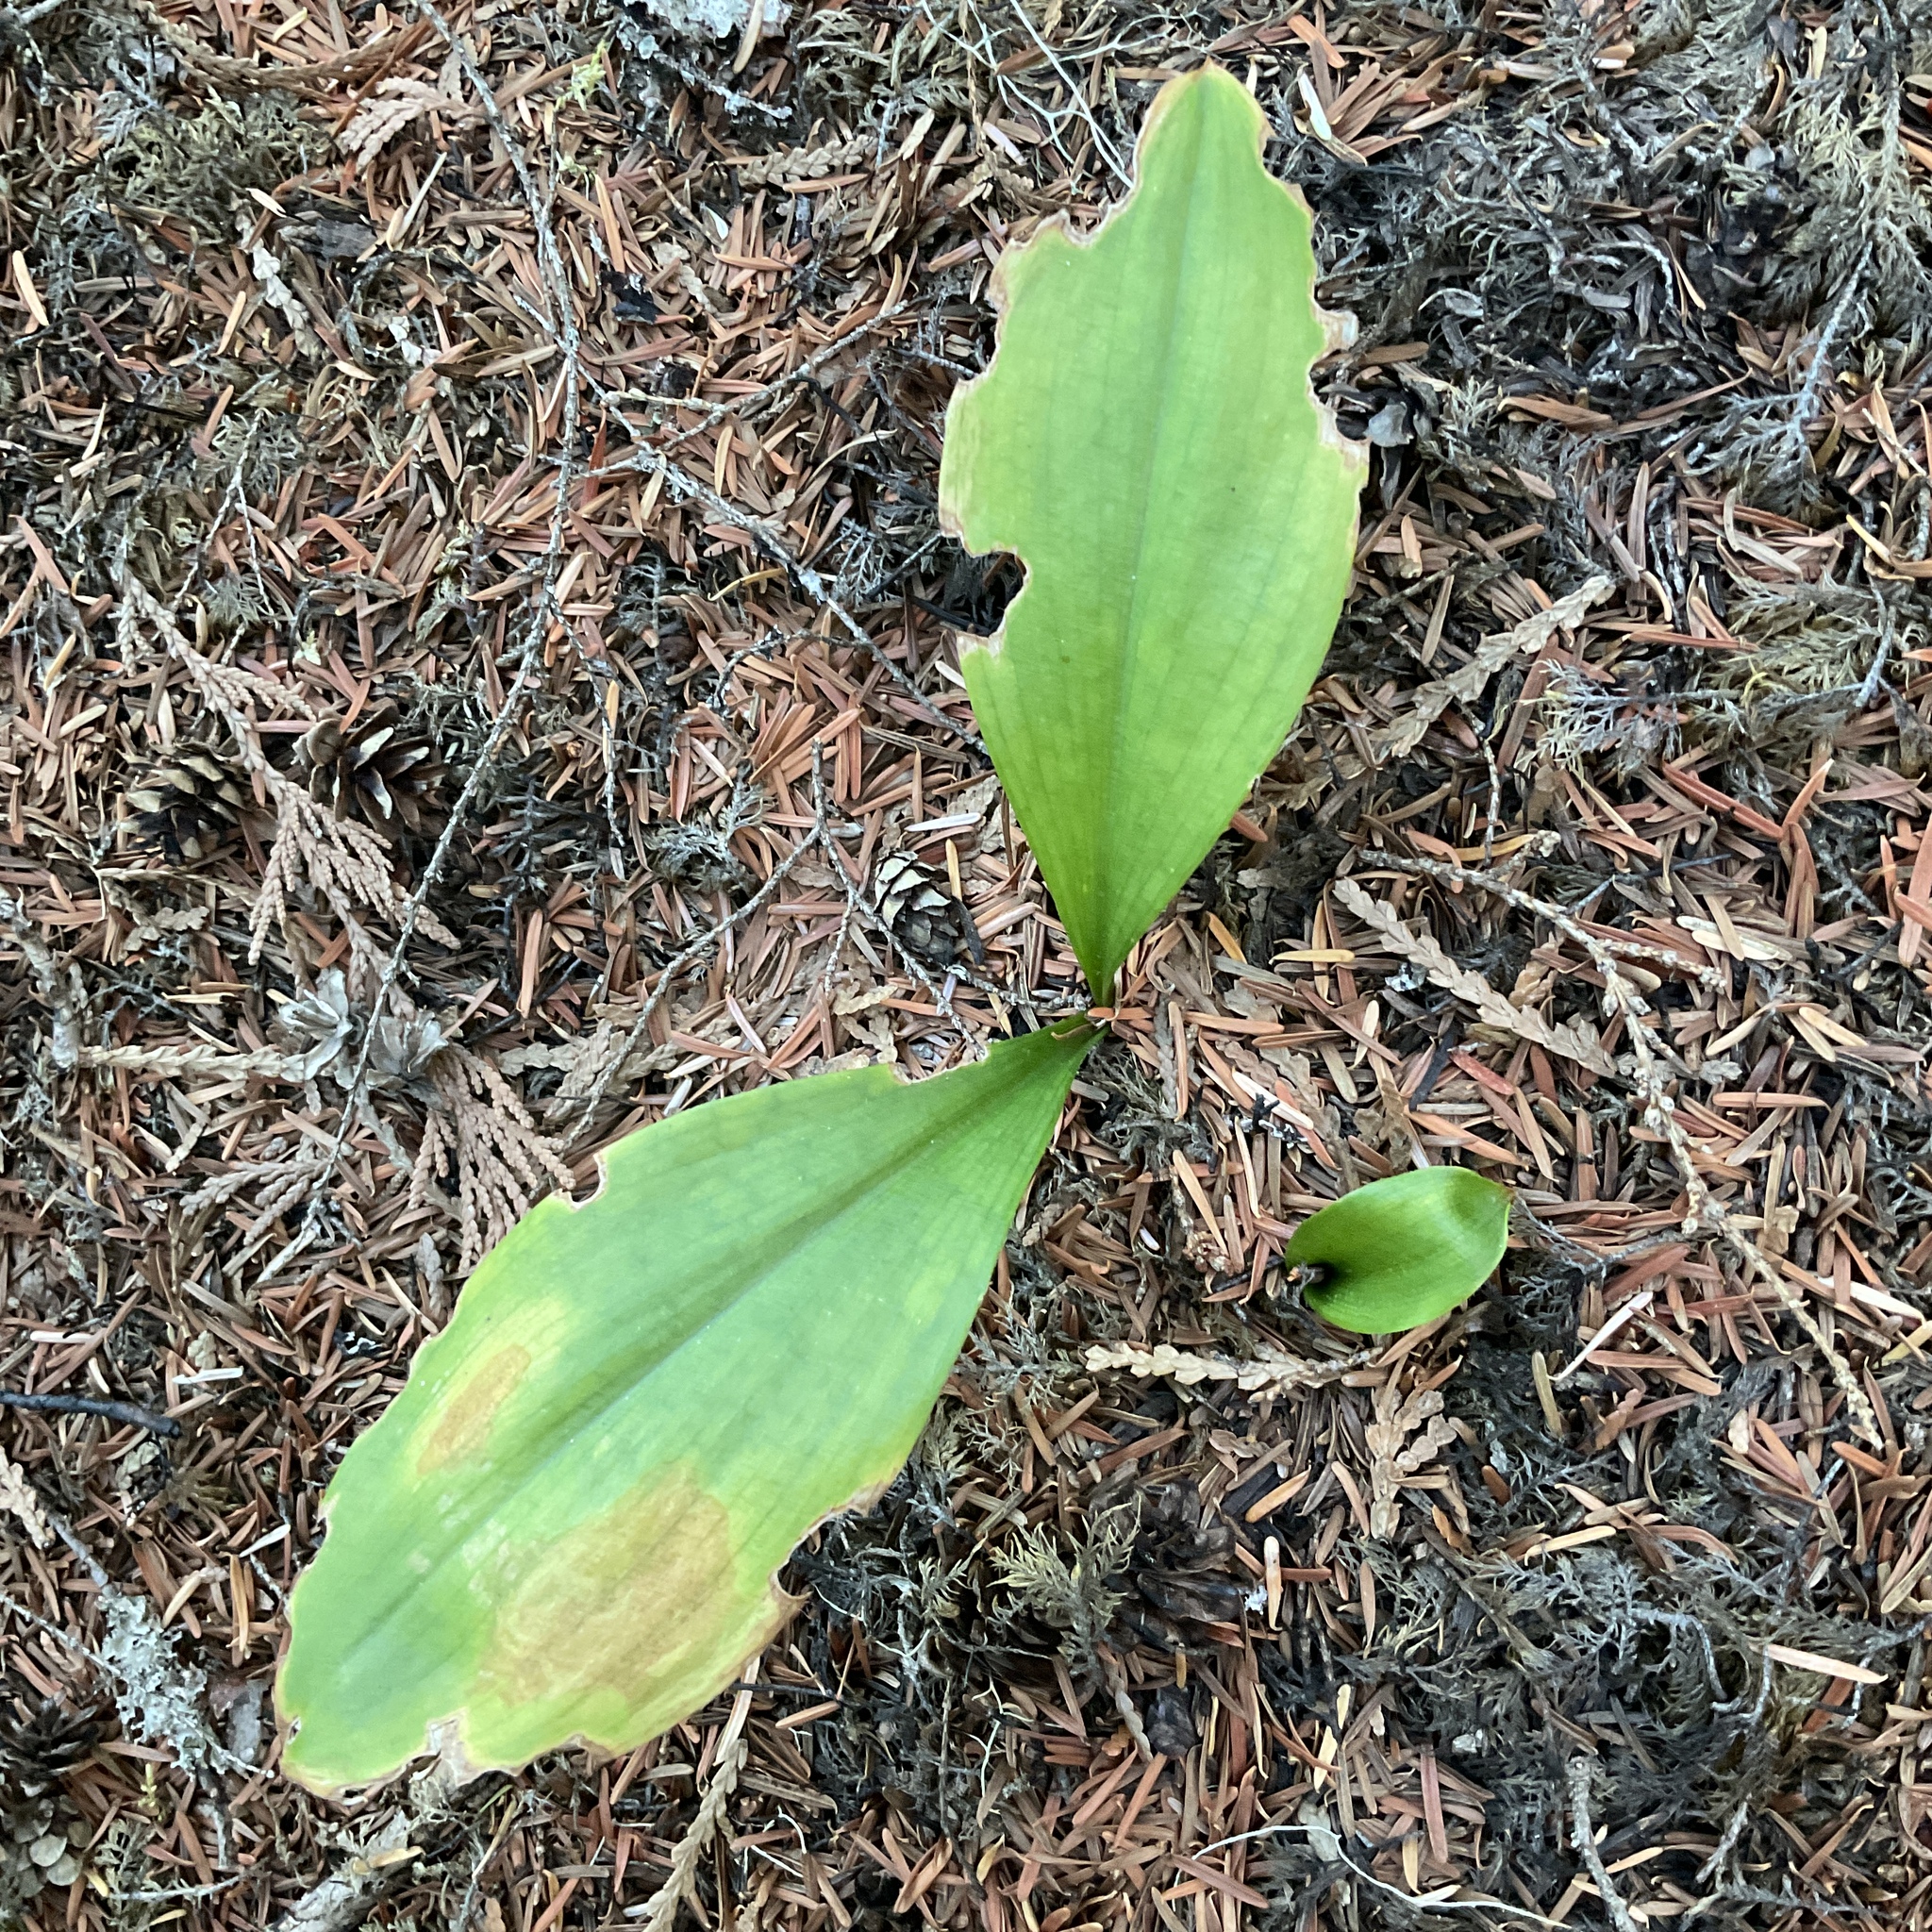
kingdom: Plantae
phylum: Tracheophyta
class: Liliopsida
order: Liliales
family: Liliaceae
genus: Clintonia
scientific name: Clintonia uniflora
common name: Queen's cup
